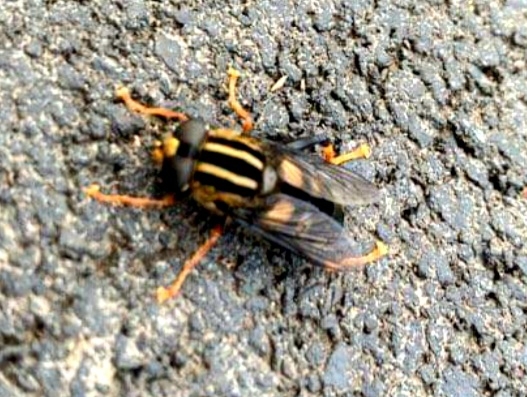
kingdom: Animalia
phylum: Arthropoda
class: Insecta
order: Diptera
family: Syrphidae
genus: Helophilus
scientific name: Helophilus seelandicus
